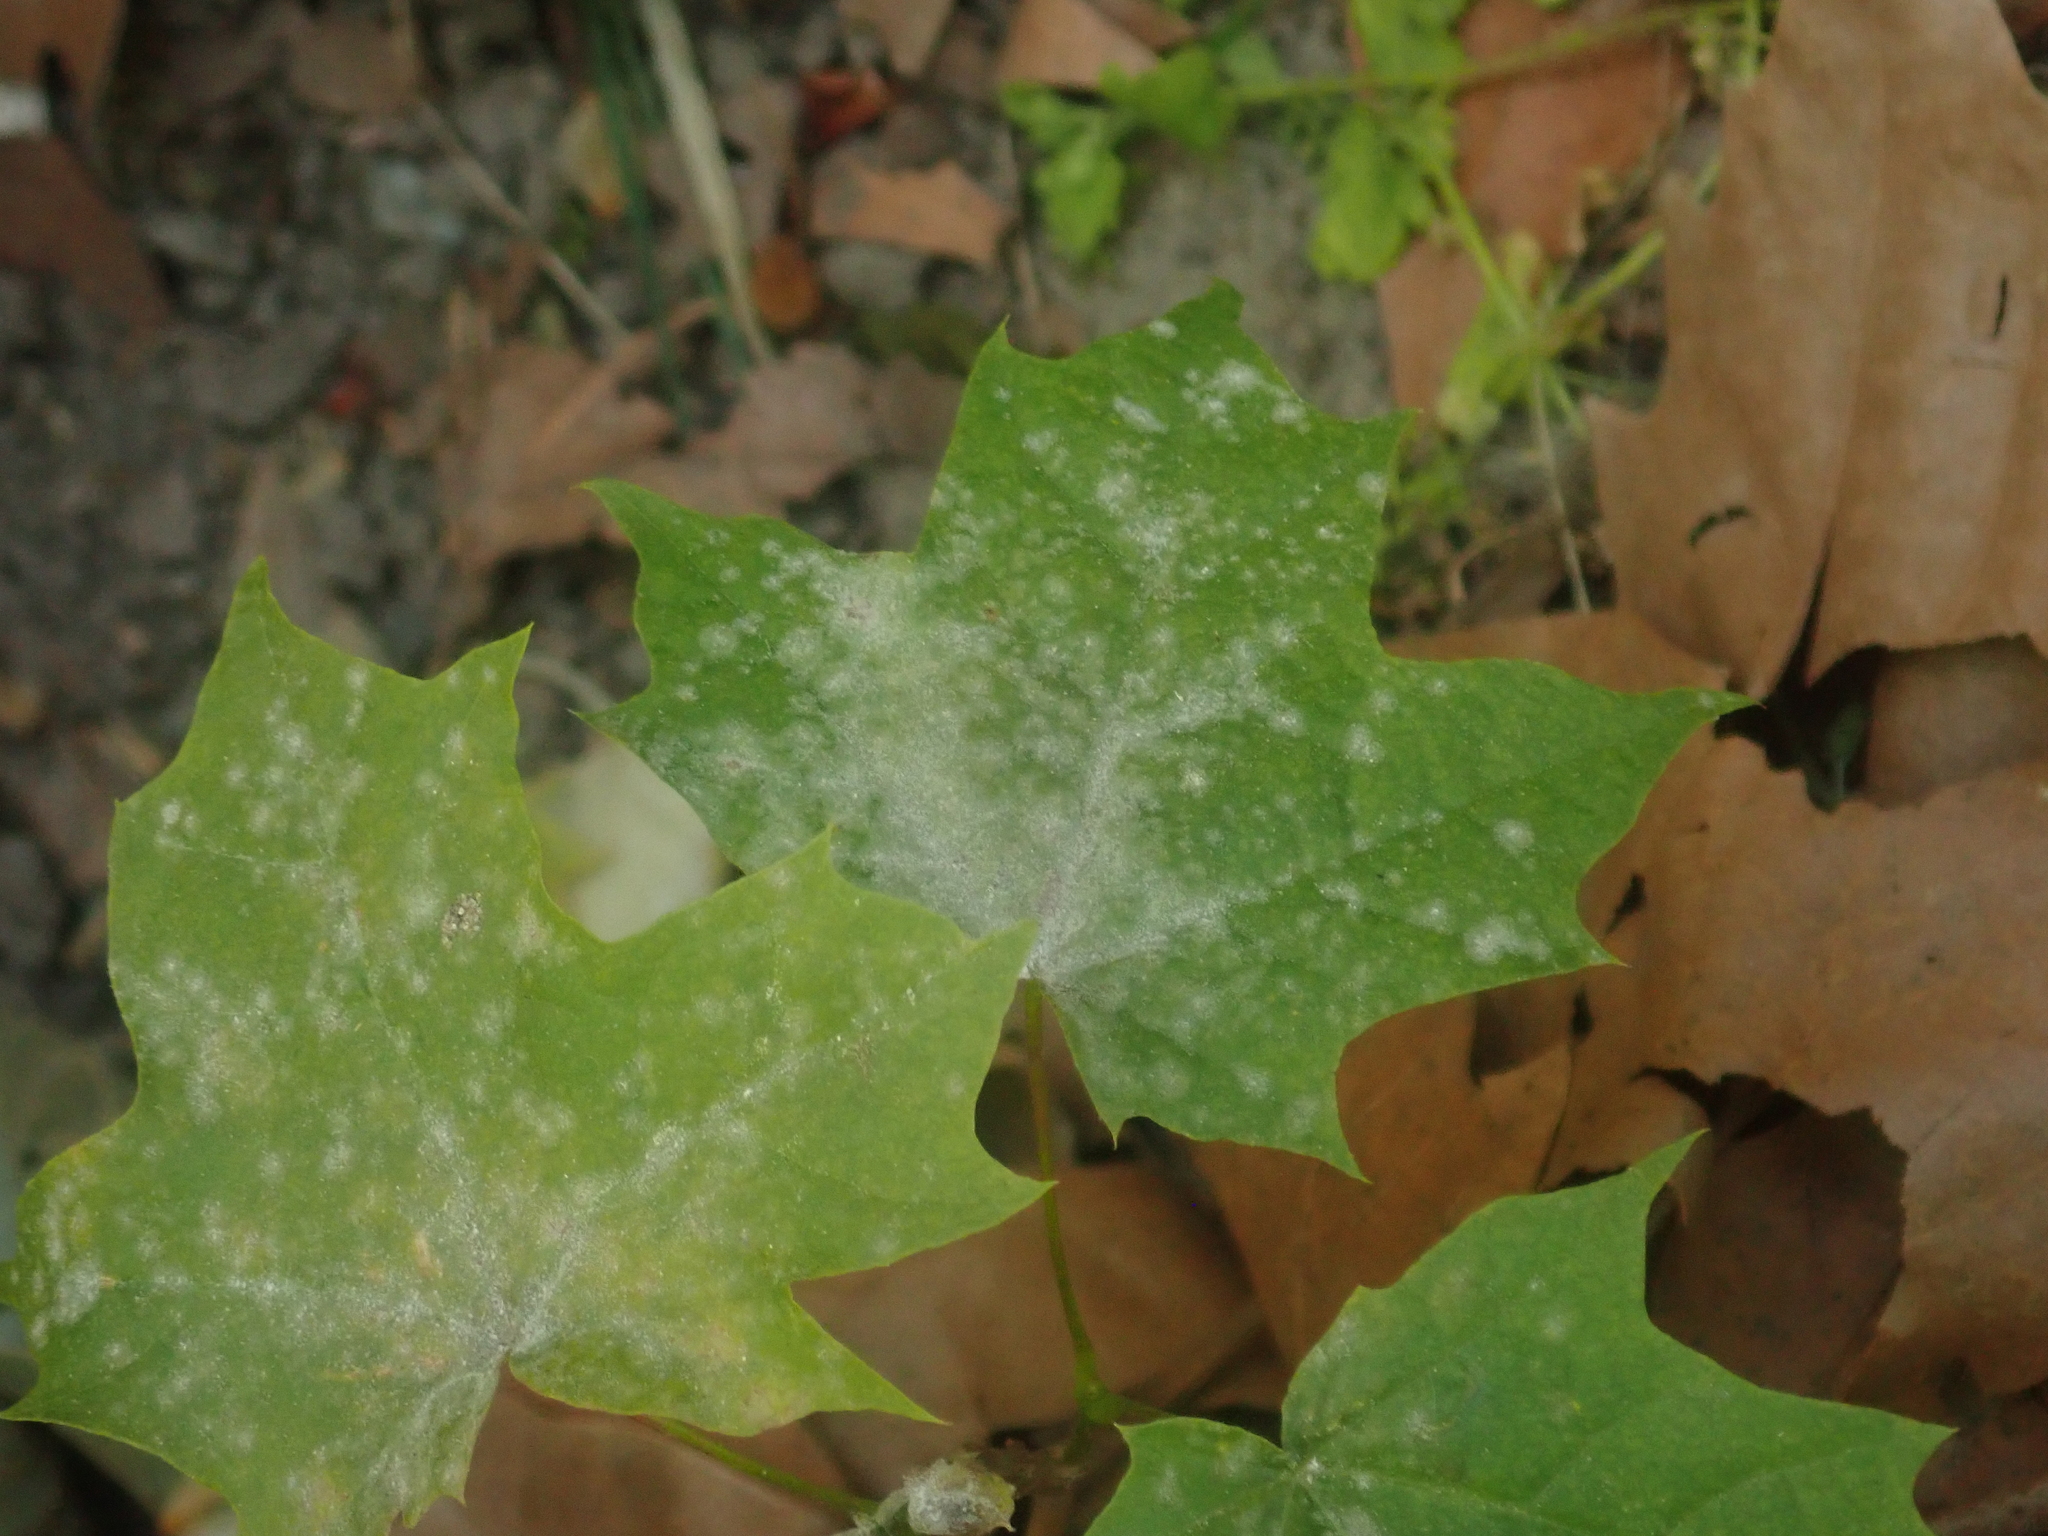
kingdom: Fungi
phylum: Ascomycota
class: Leotiomycetes
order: Helotiales
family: Erysiphaceae
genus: Sawadaea
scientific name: Sawadaea tulasnei
